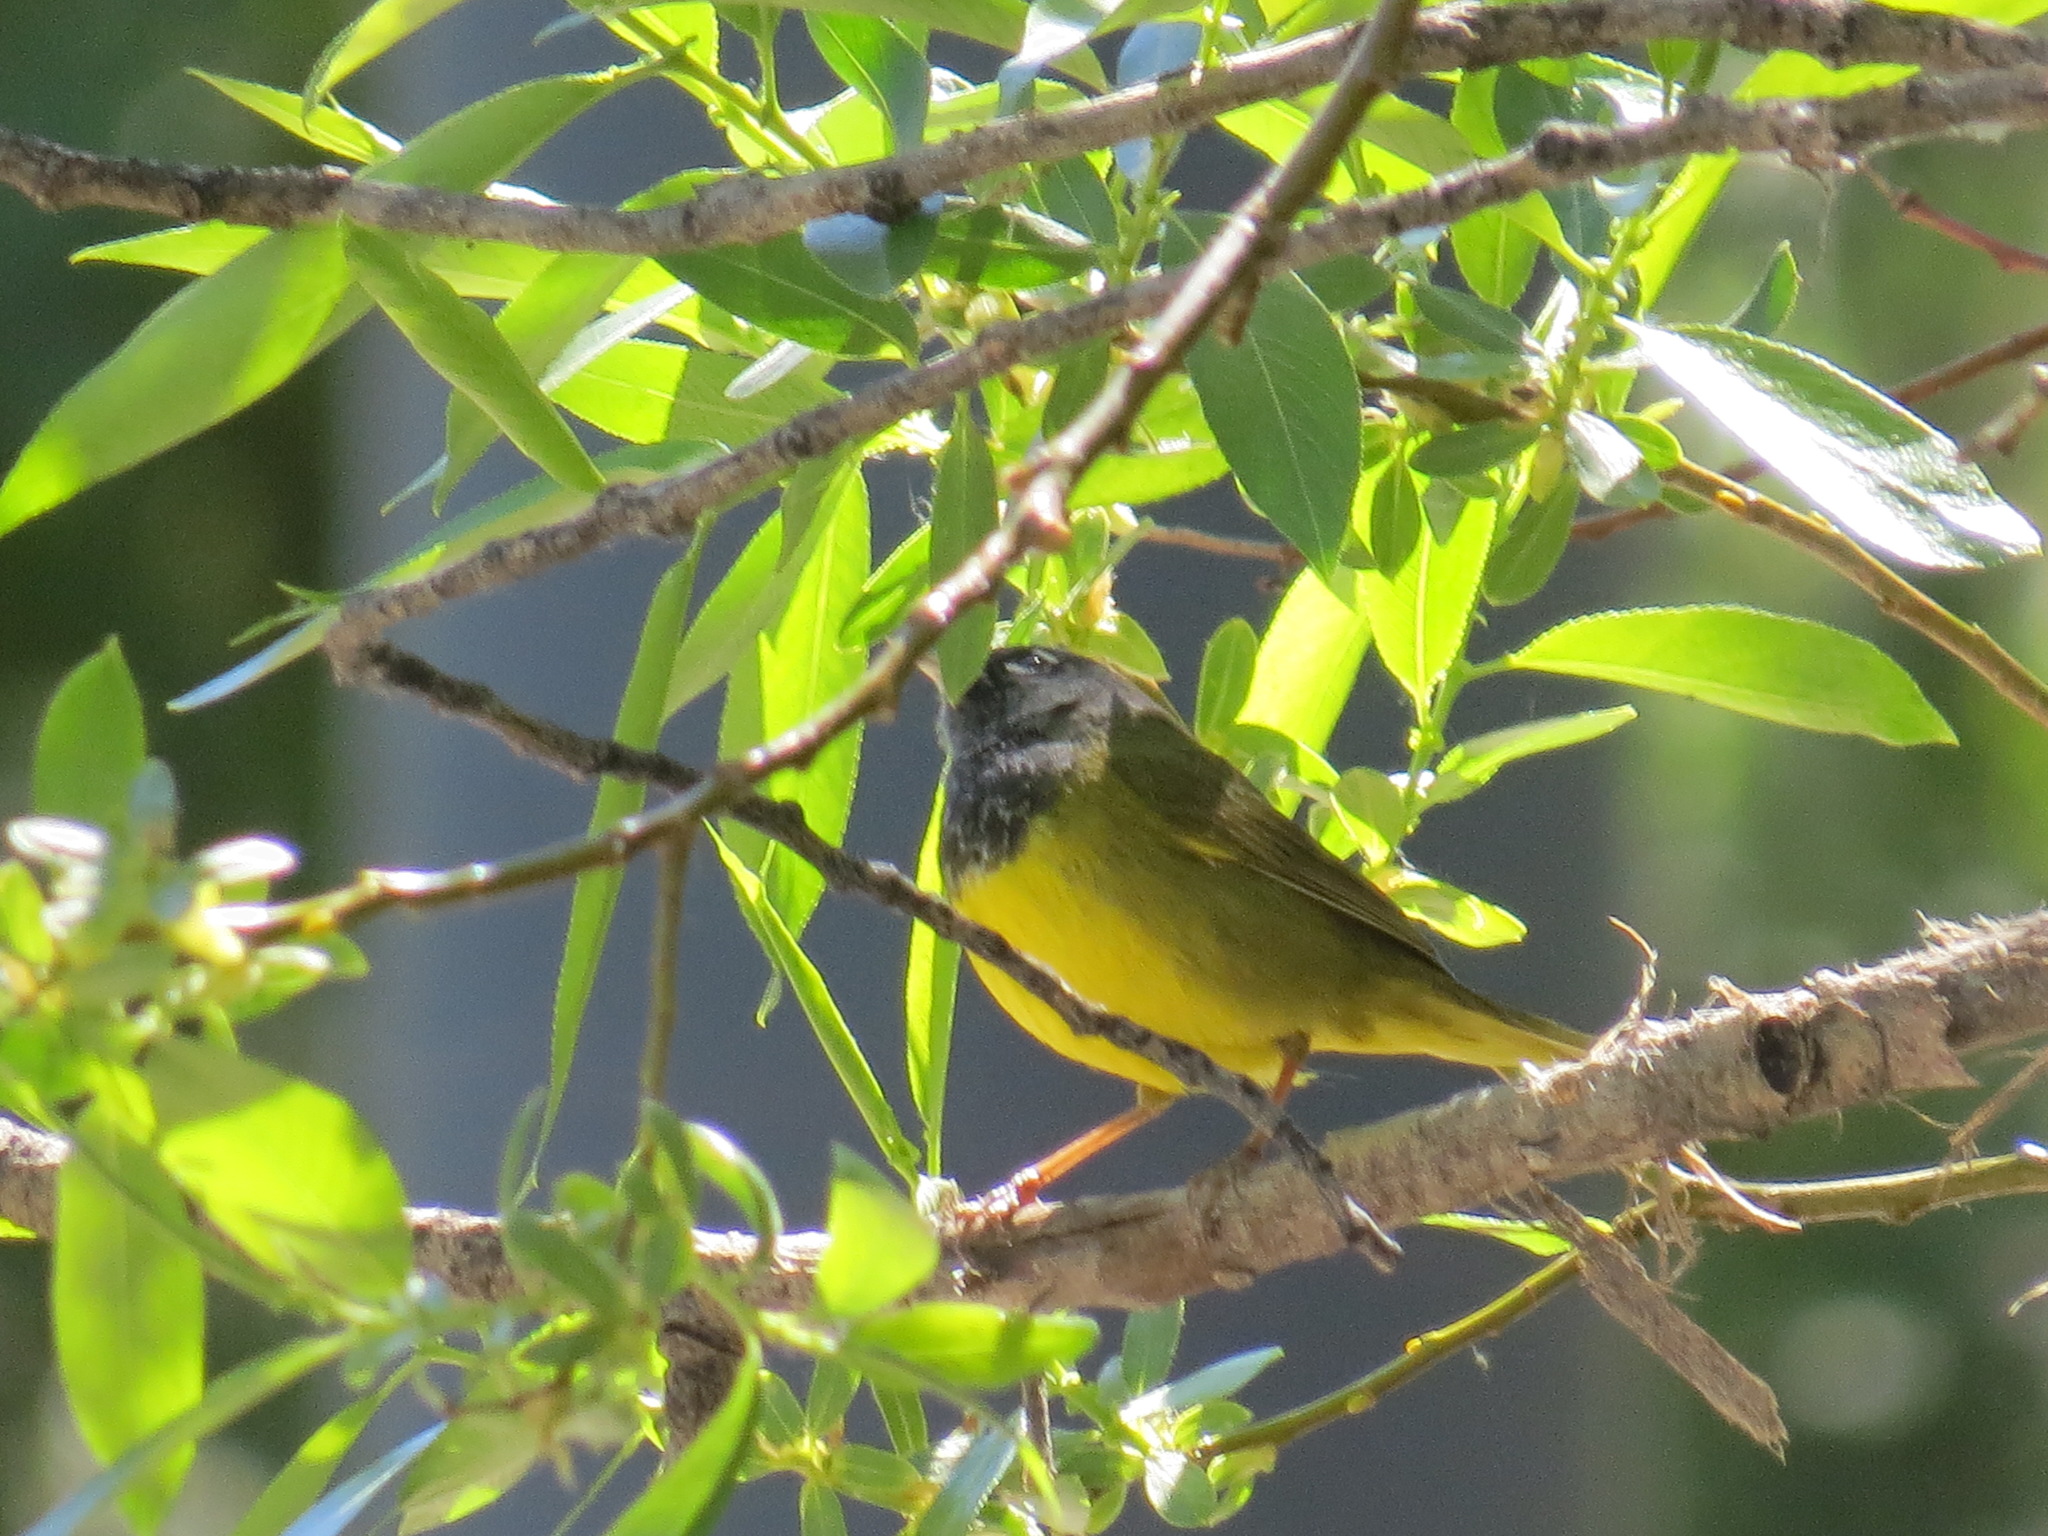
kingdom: Animalia
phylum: Chordata
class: Aves
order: Passeriformes
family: Parulidae
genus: Geothlypis
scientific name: Geothlypis tolmiei
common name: Macgillivray's warbler
